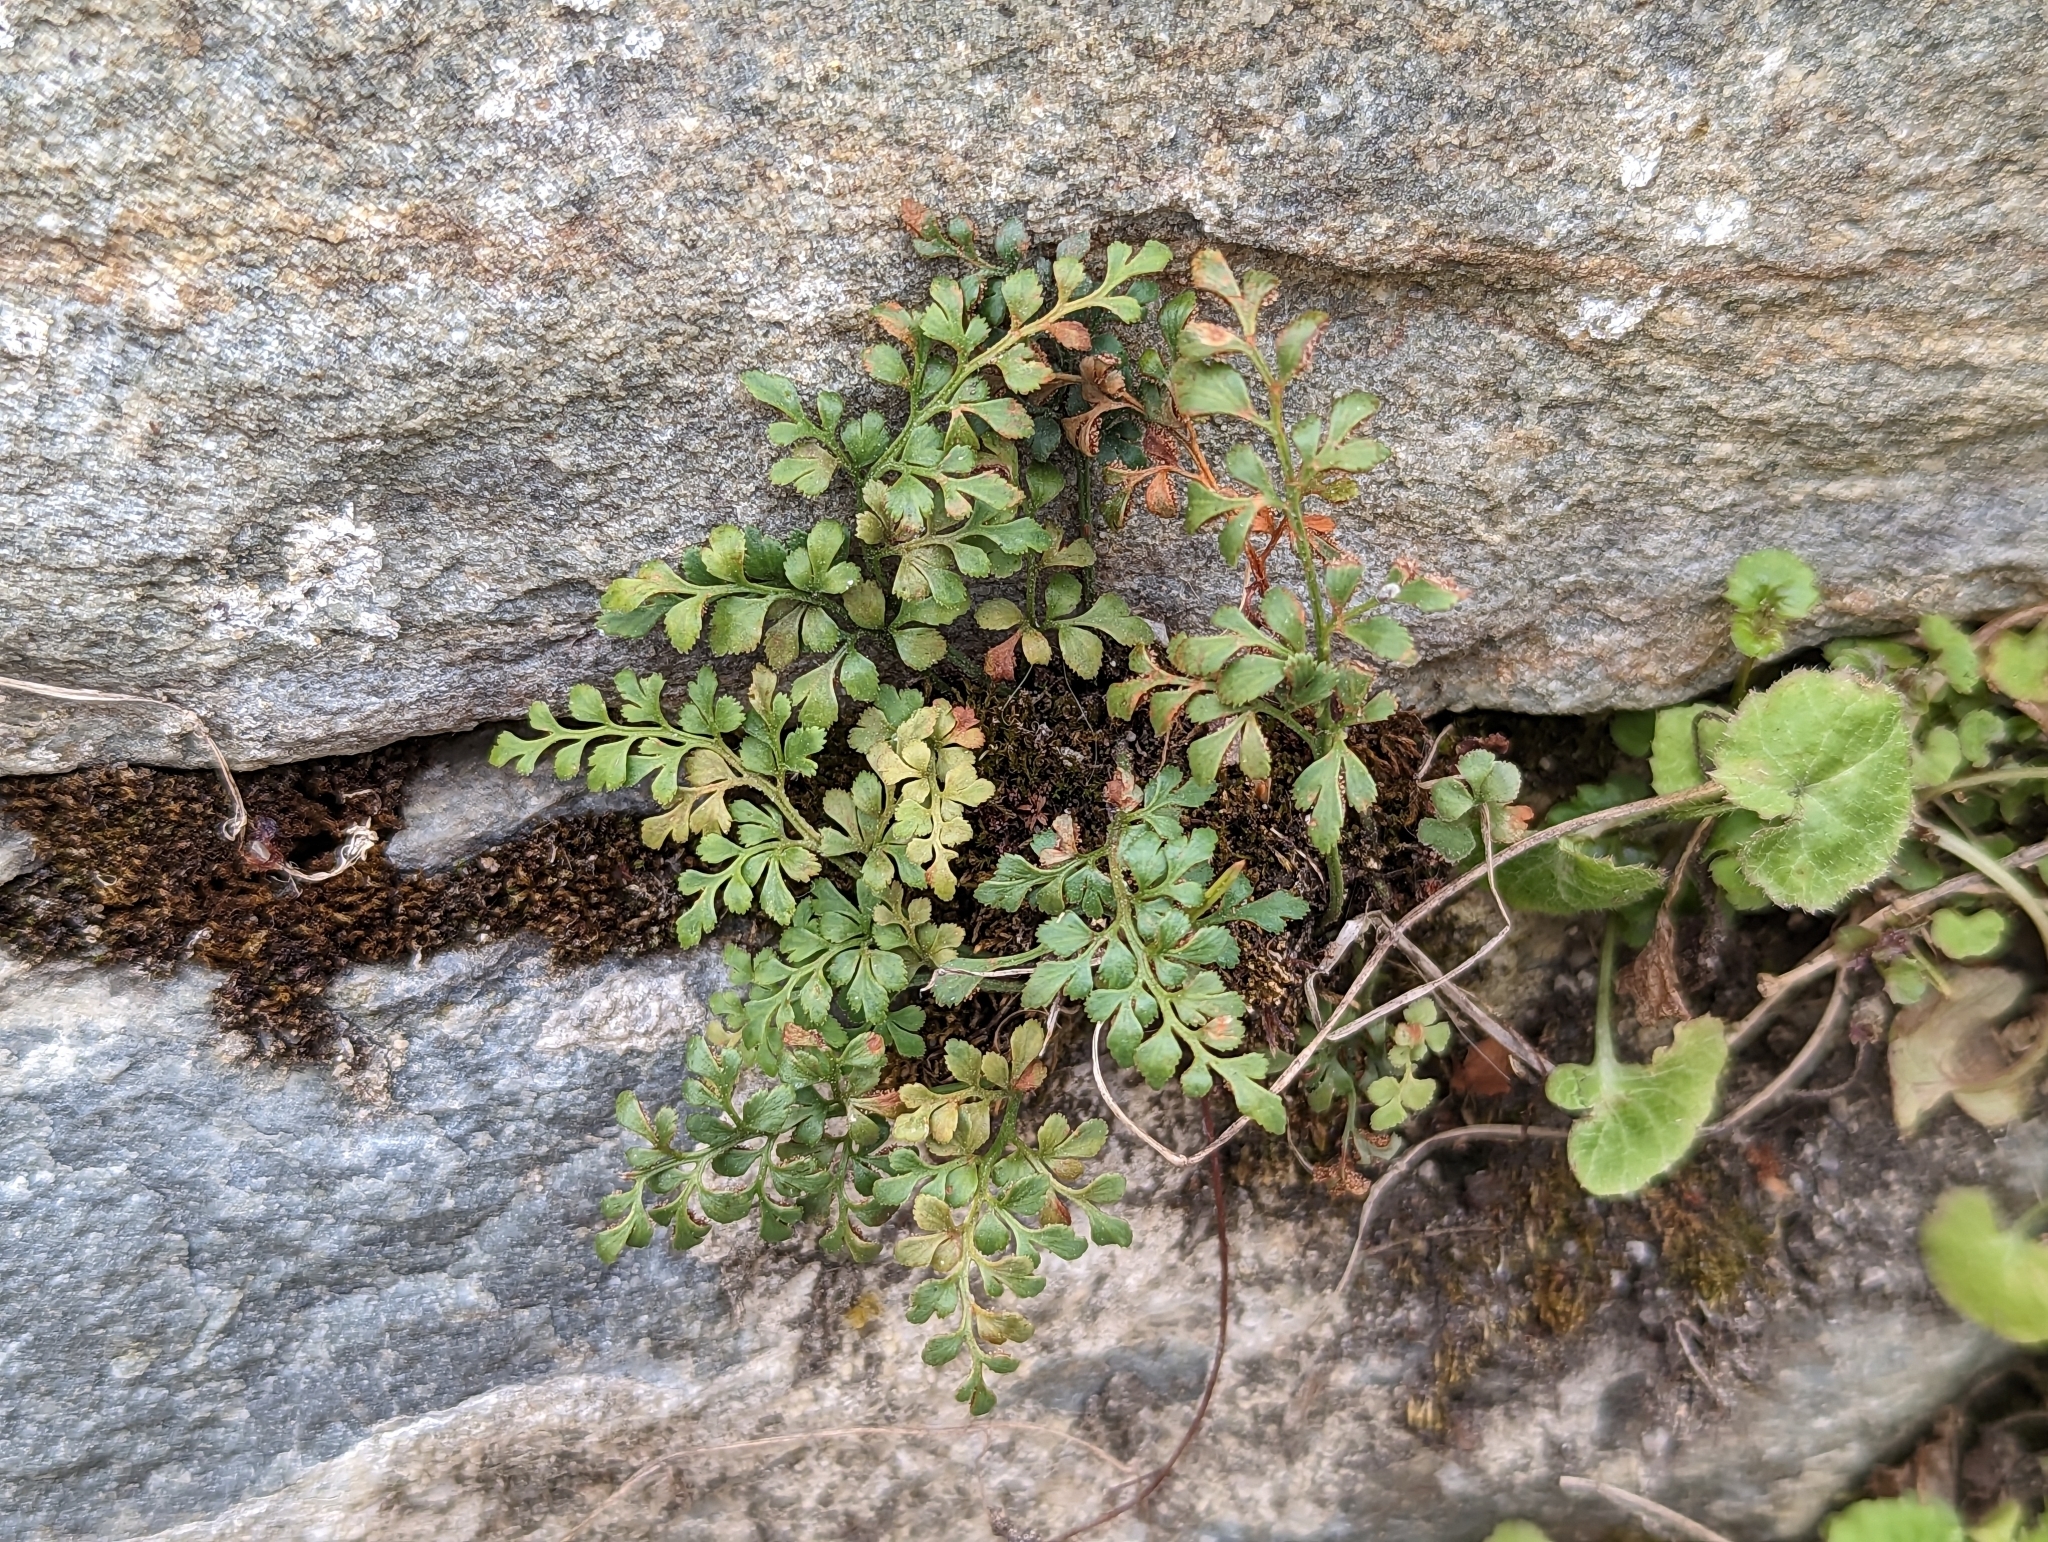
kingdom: Plantae
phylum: Tracheophyta
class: Polypodiopsida
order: Polypodiales
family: Aspleniaceae
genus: Asplenium
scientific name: Asplenium ruta-muraria
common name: Wall-rue
